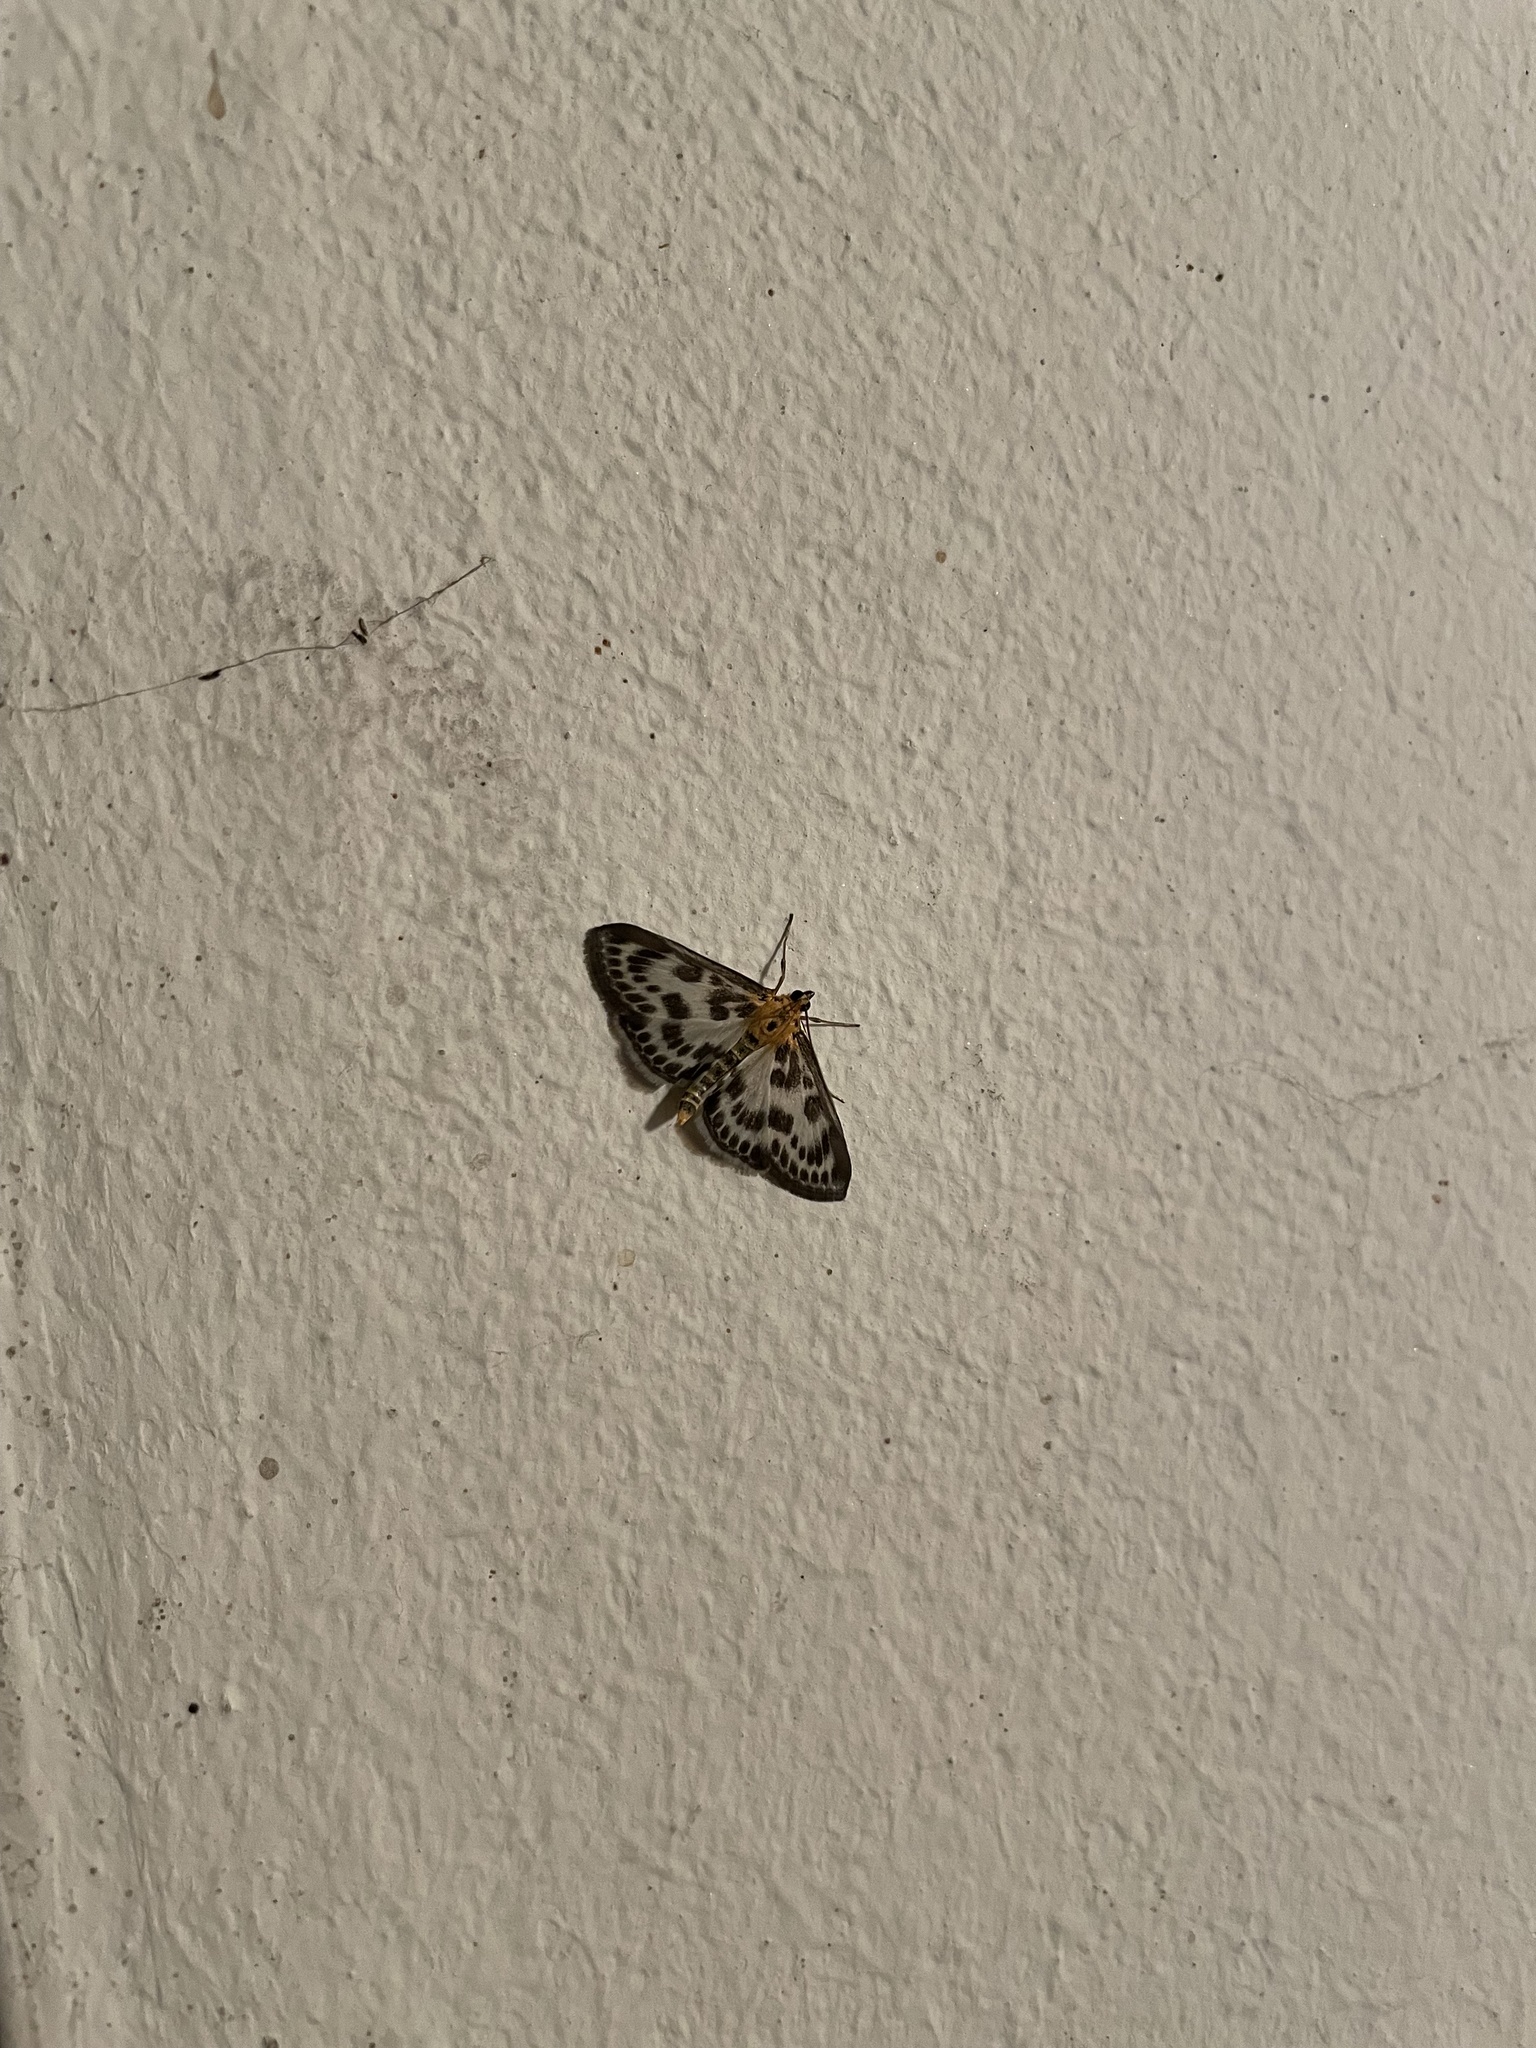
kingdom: Animalia
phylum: Arthropoda
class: Insecta
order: Lepidoptera
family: Crambidae
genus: Anania
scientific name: Anania hortulata
